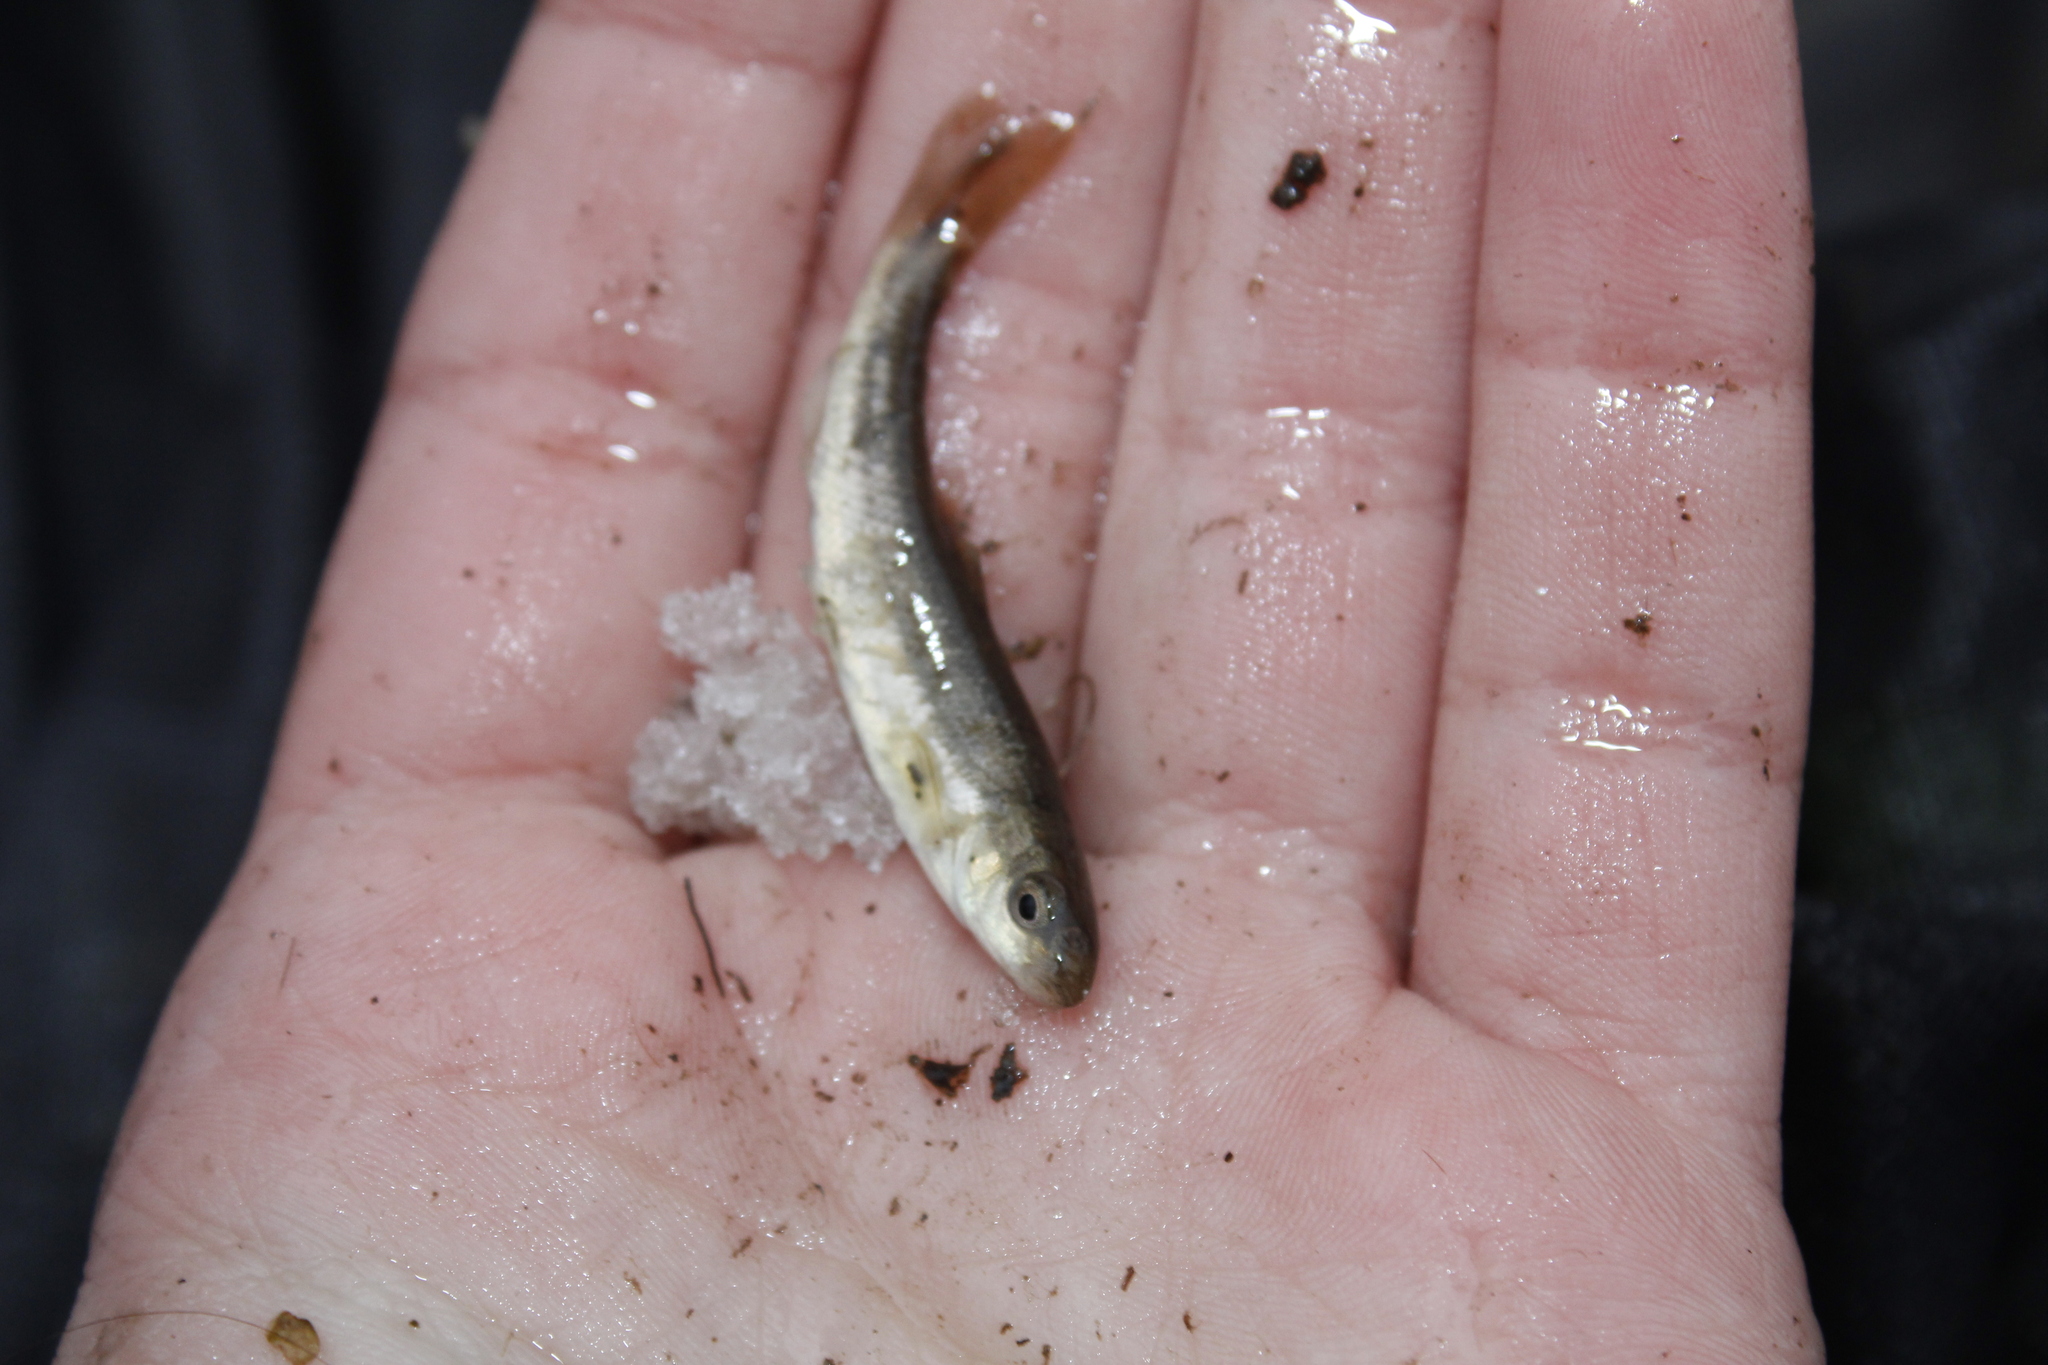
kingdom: Animalia
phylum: Chordata
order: Cypriniformes
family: Cyprinidae
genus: Campostoma
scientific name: Campostoma anomalum
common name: Central stoneroller
